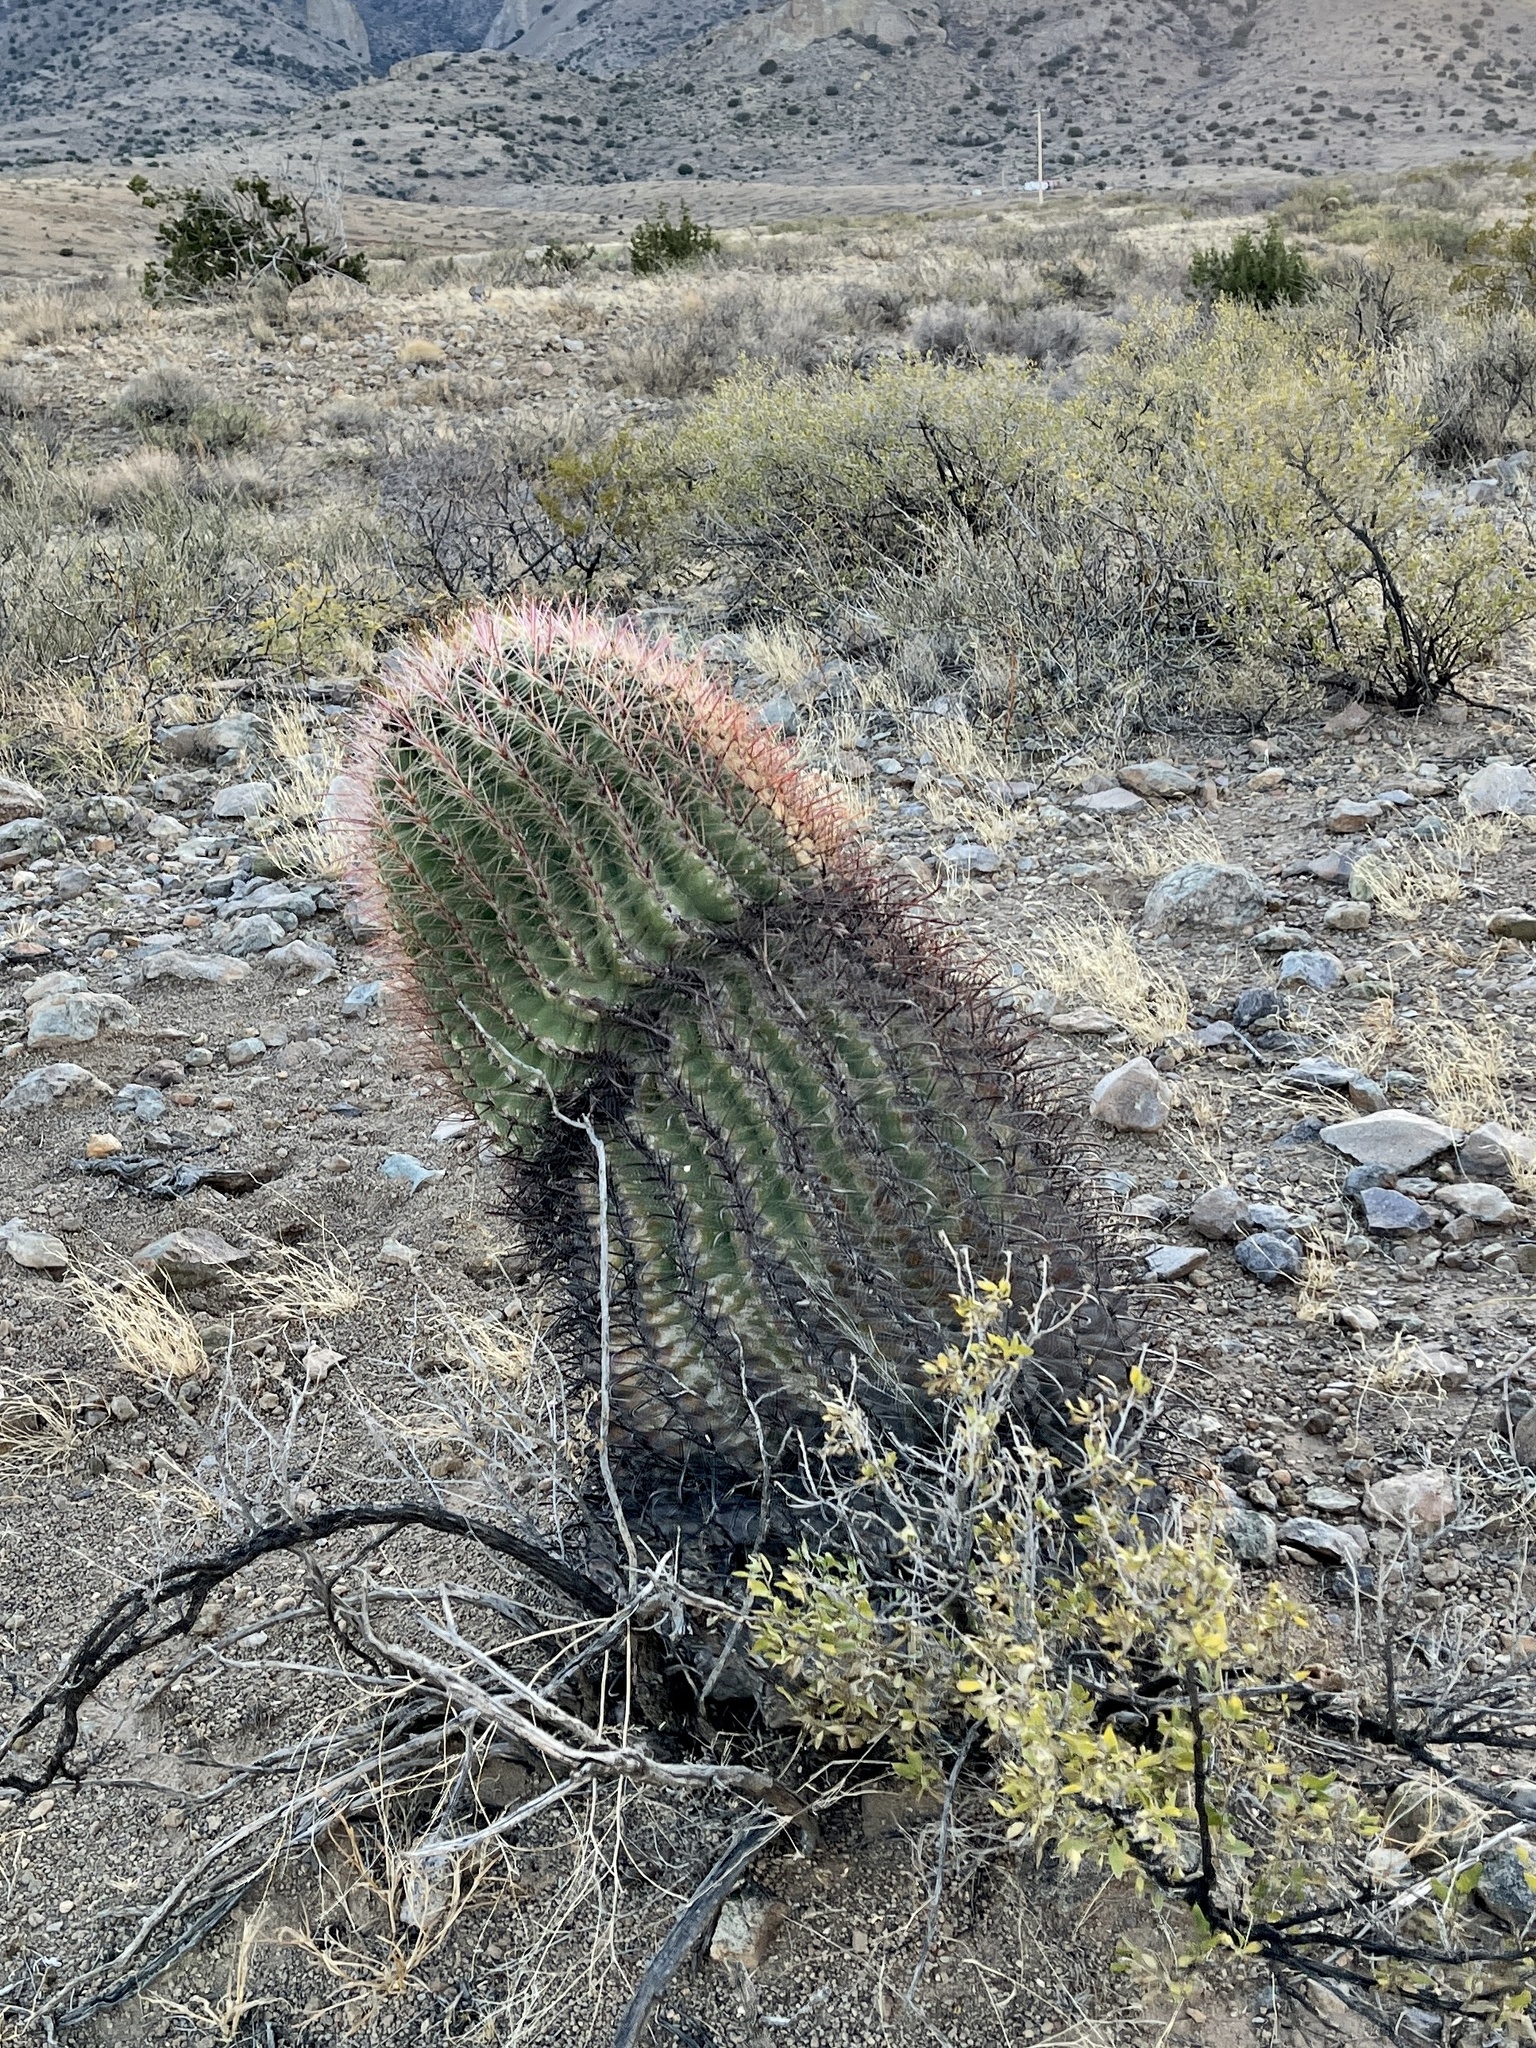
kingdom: Plantae
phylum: Tracheophyta
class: Magnoliopsida
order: Caryophyllales
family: Cactaceae
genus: Ferocactus
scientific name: Ferocactus wislizeni
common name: Candy barrel cactus
